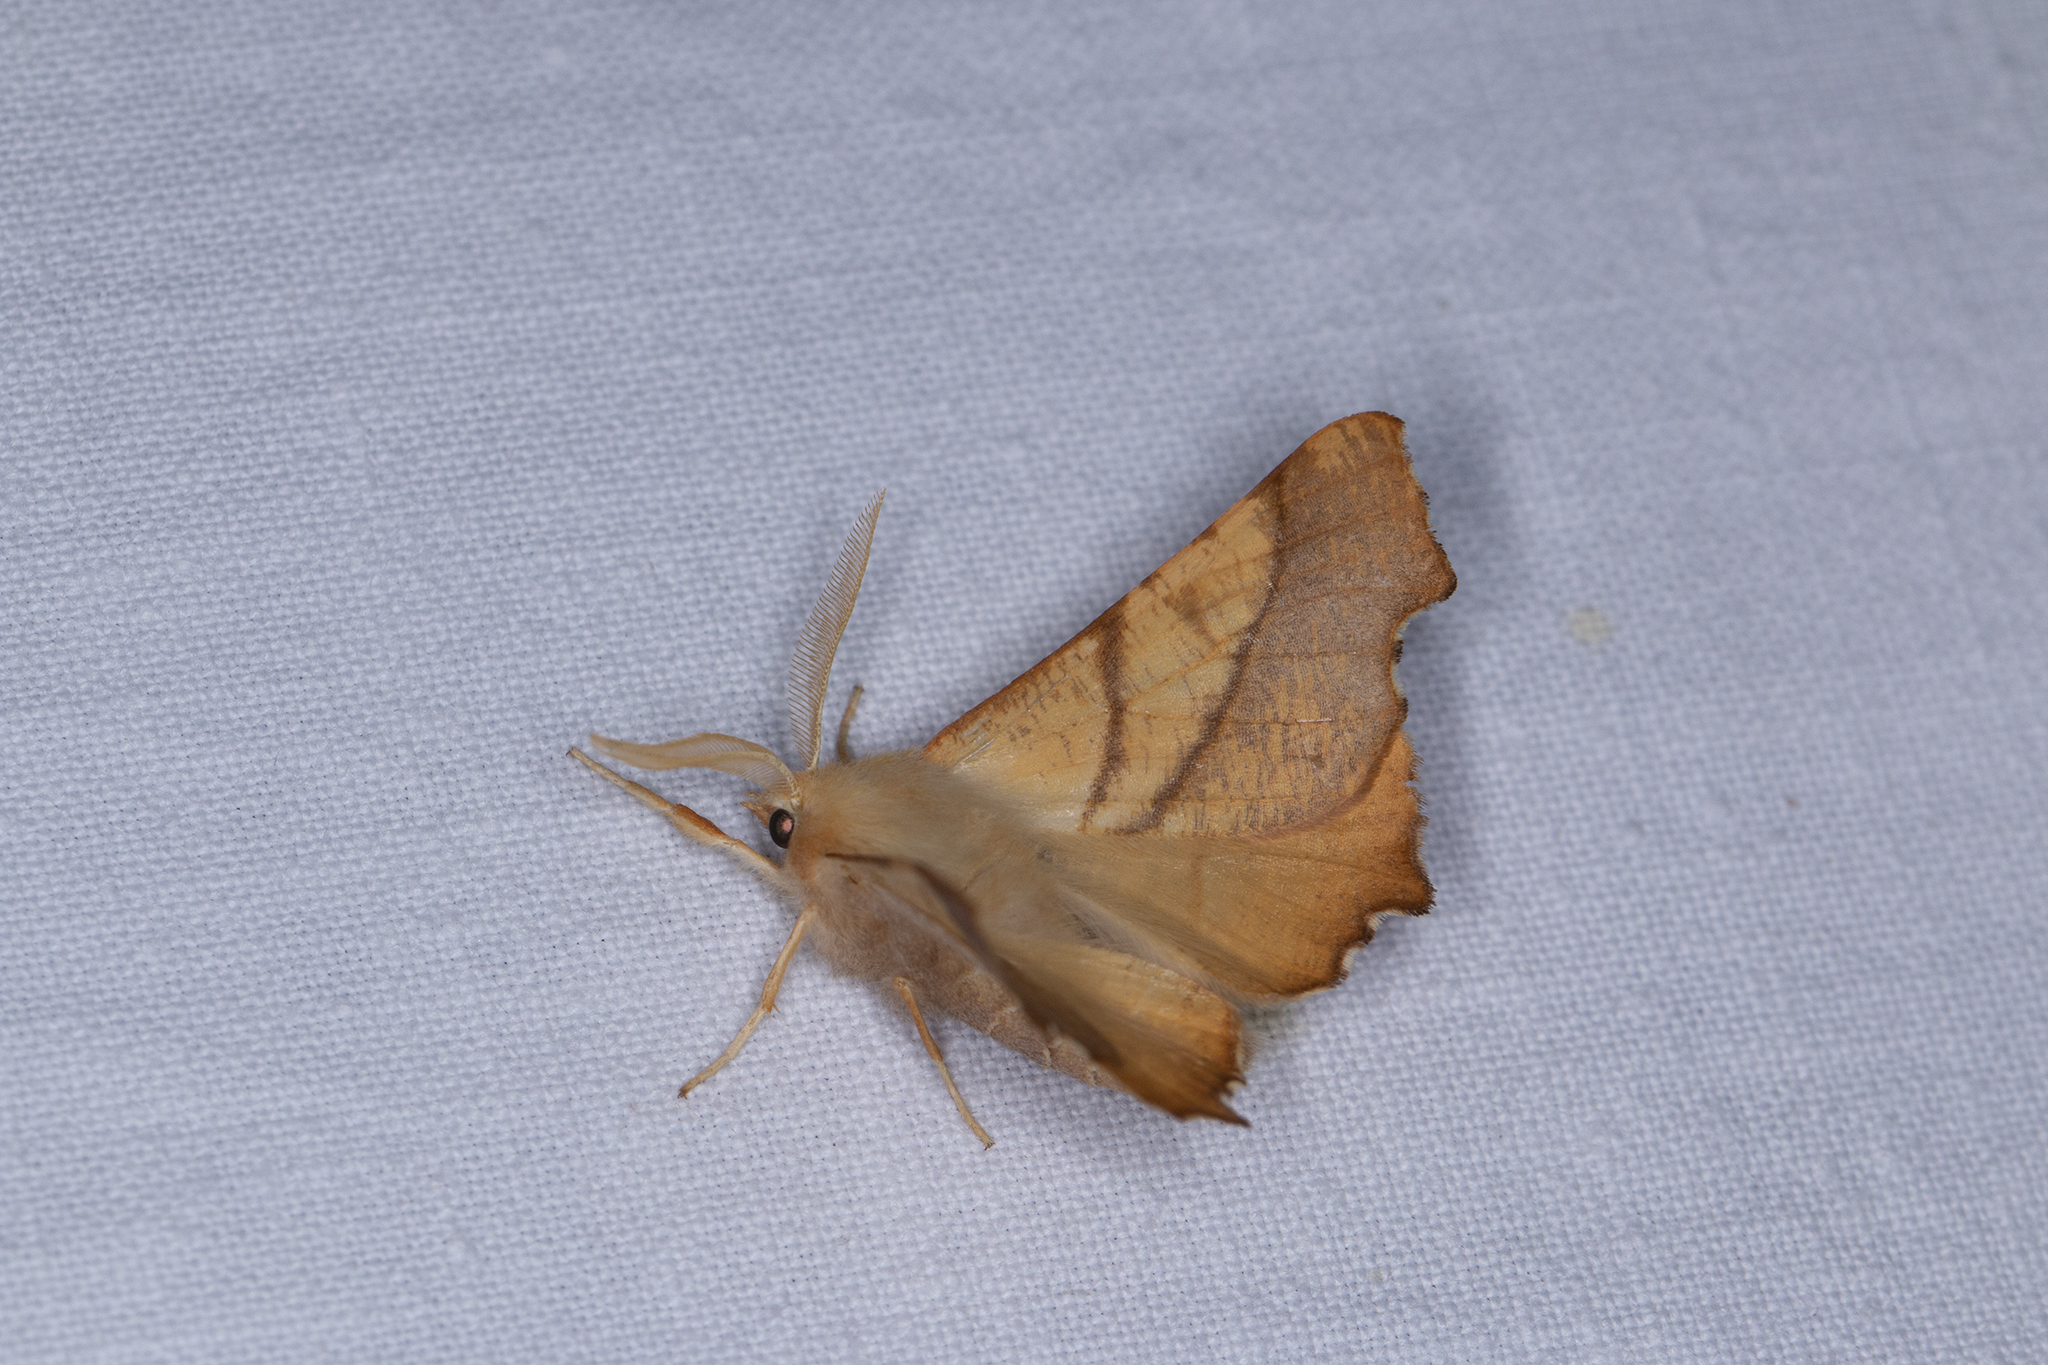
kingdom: Animalia
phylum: Arthropoda
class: Insecta
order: Lepidoptera
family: Geometridae
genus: Ennomos
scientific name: Ennomos fuscantaria
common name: Dusky thorn
